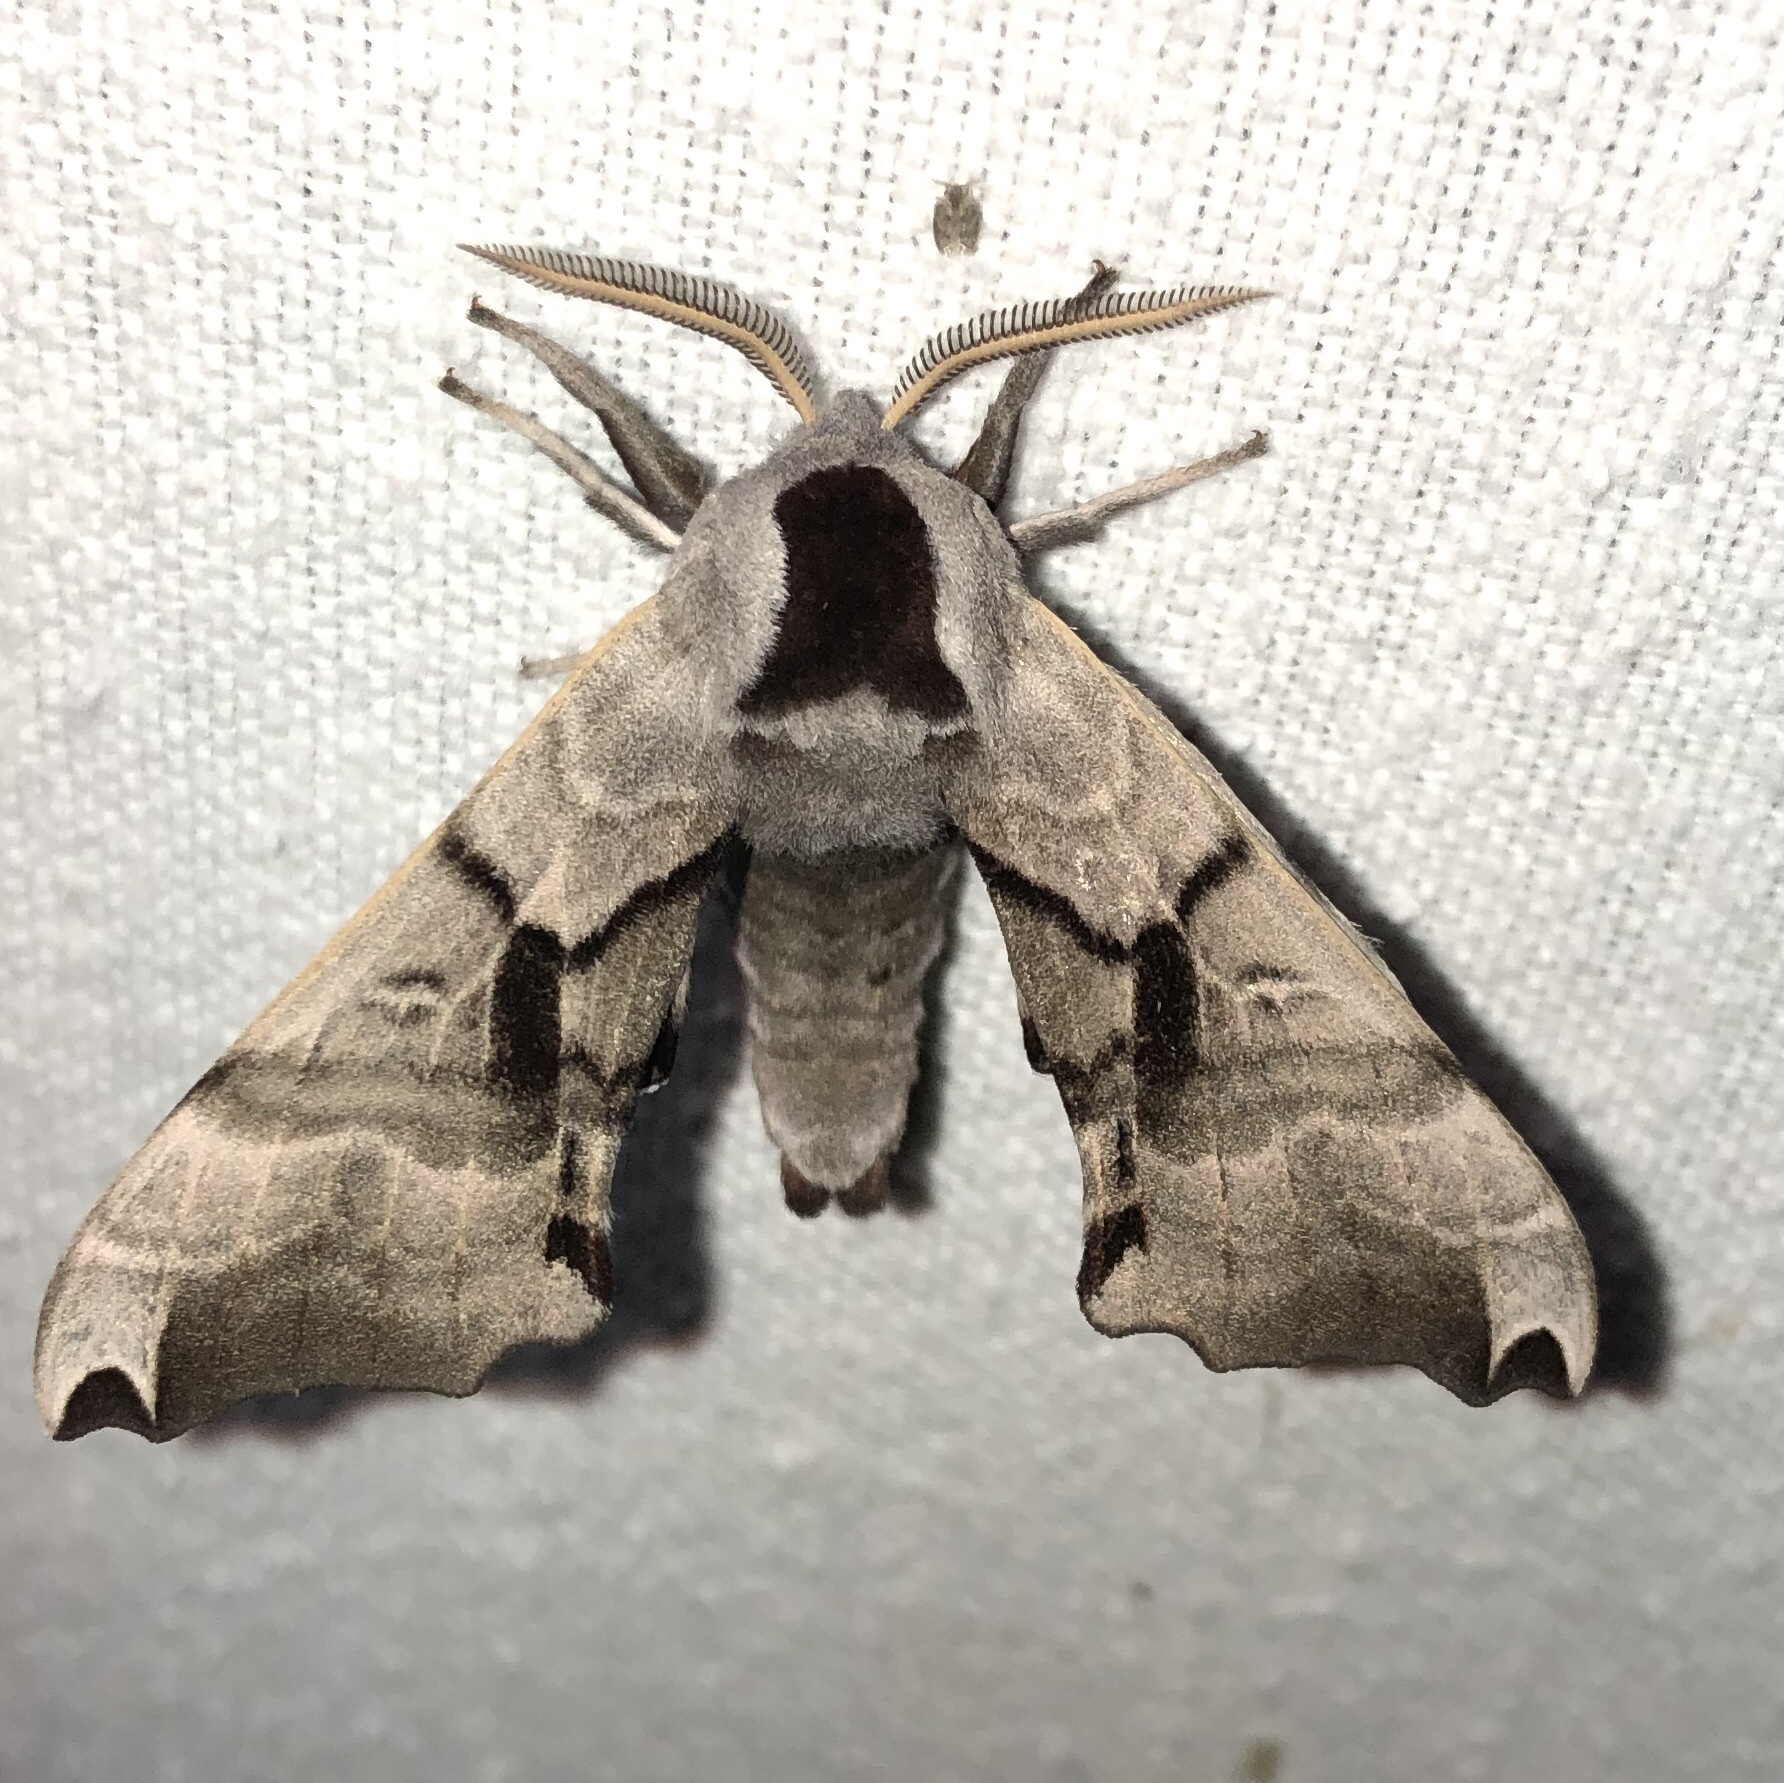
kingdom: Animalia
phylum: Arthropoda
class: Insecta
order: Lepidoptera
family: Sphingidae
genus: Smerinthus
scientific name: Smerinthus jamaicensis
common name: Twin spotted sphinx
